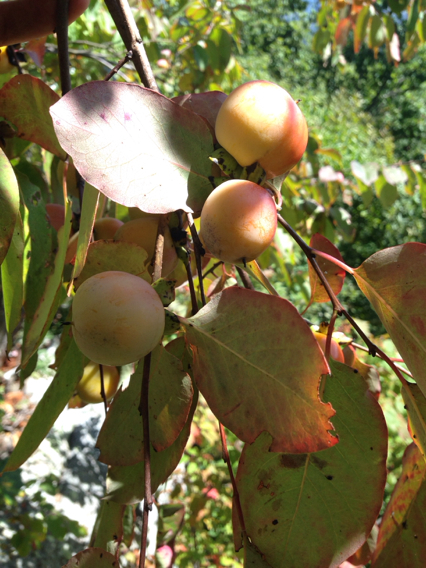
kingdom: Plantae
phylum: Tracheophyta
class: Magnoliopsida
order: Ericales
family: Ebenaceae
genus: Diospyros
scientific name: Diospyros virginiana
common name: Persimmon
